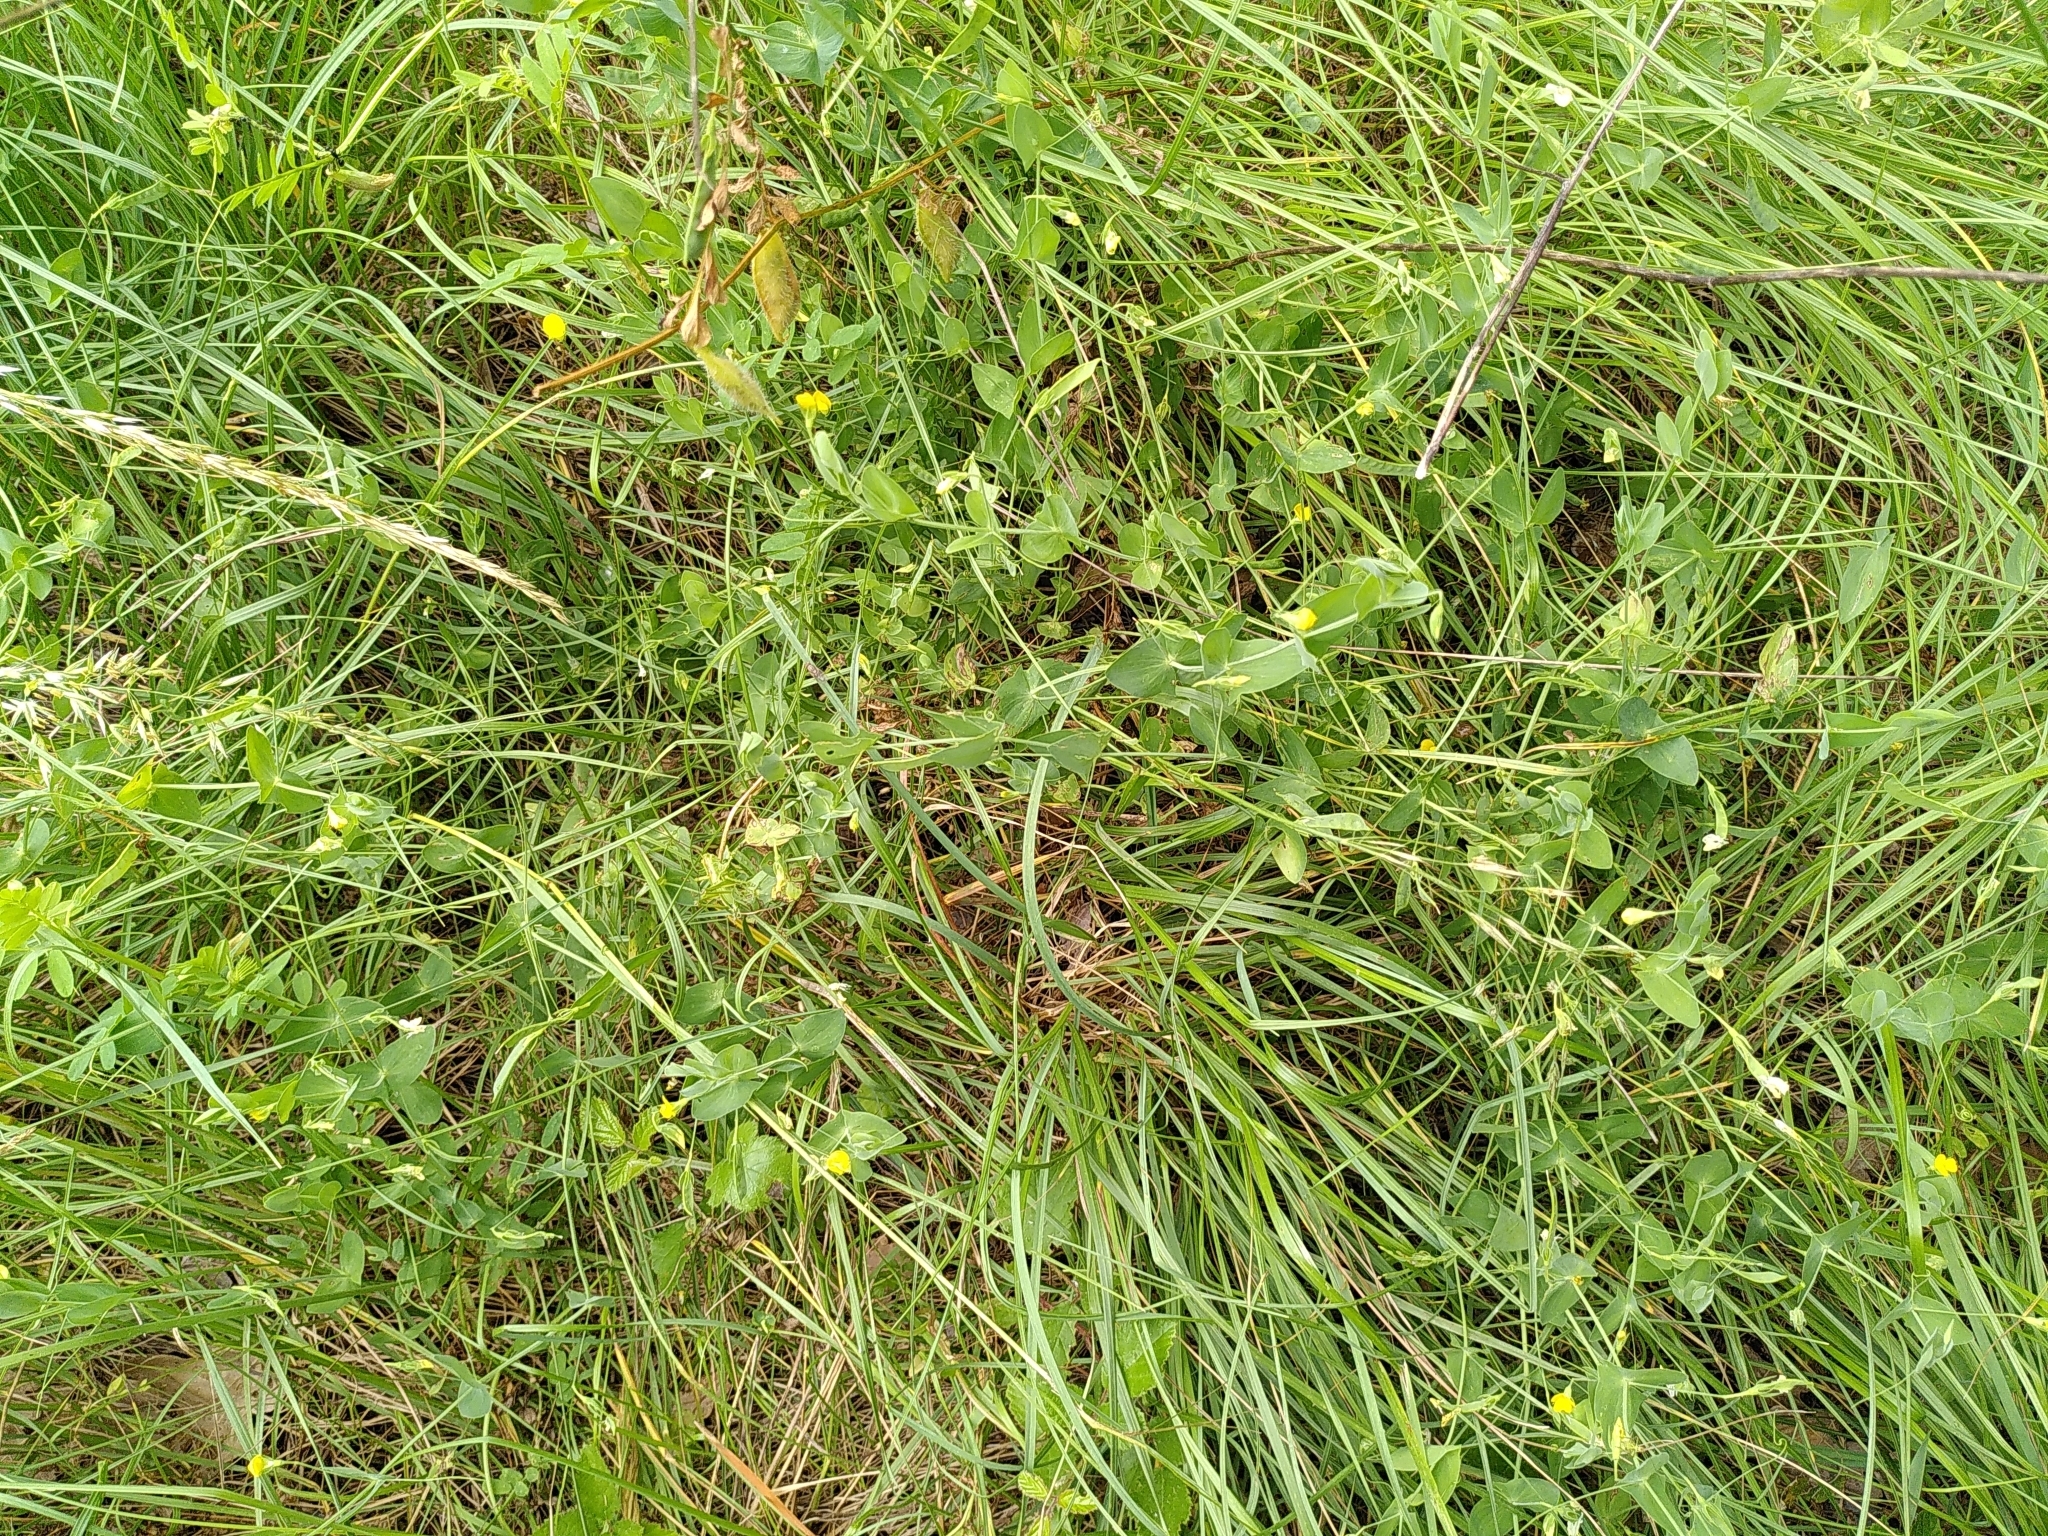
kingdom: Plantae
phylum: Tracheophyta
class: Magnoliopsida
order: Fabales
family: Fabaceae
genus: Lathyrus
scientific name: Lathyrus aphaca
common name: Yellow vetchling
